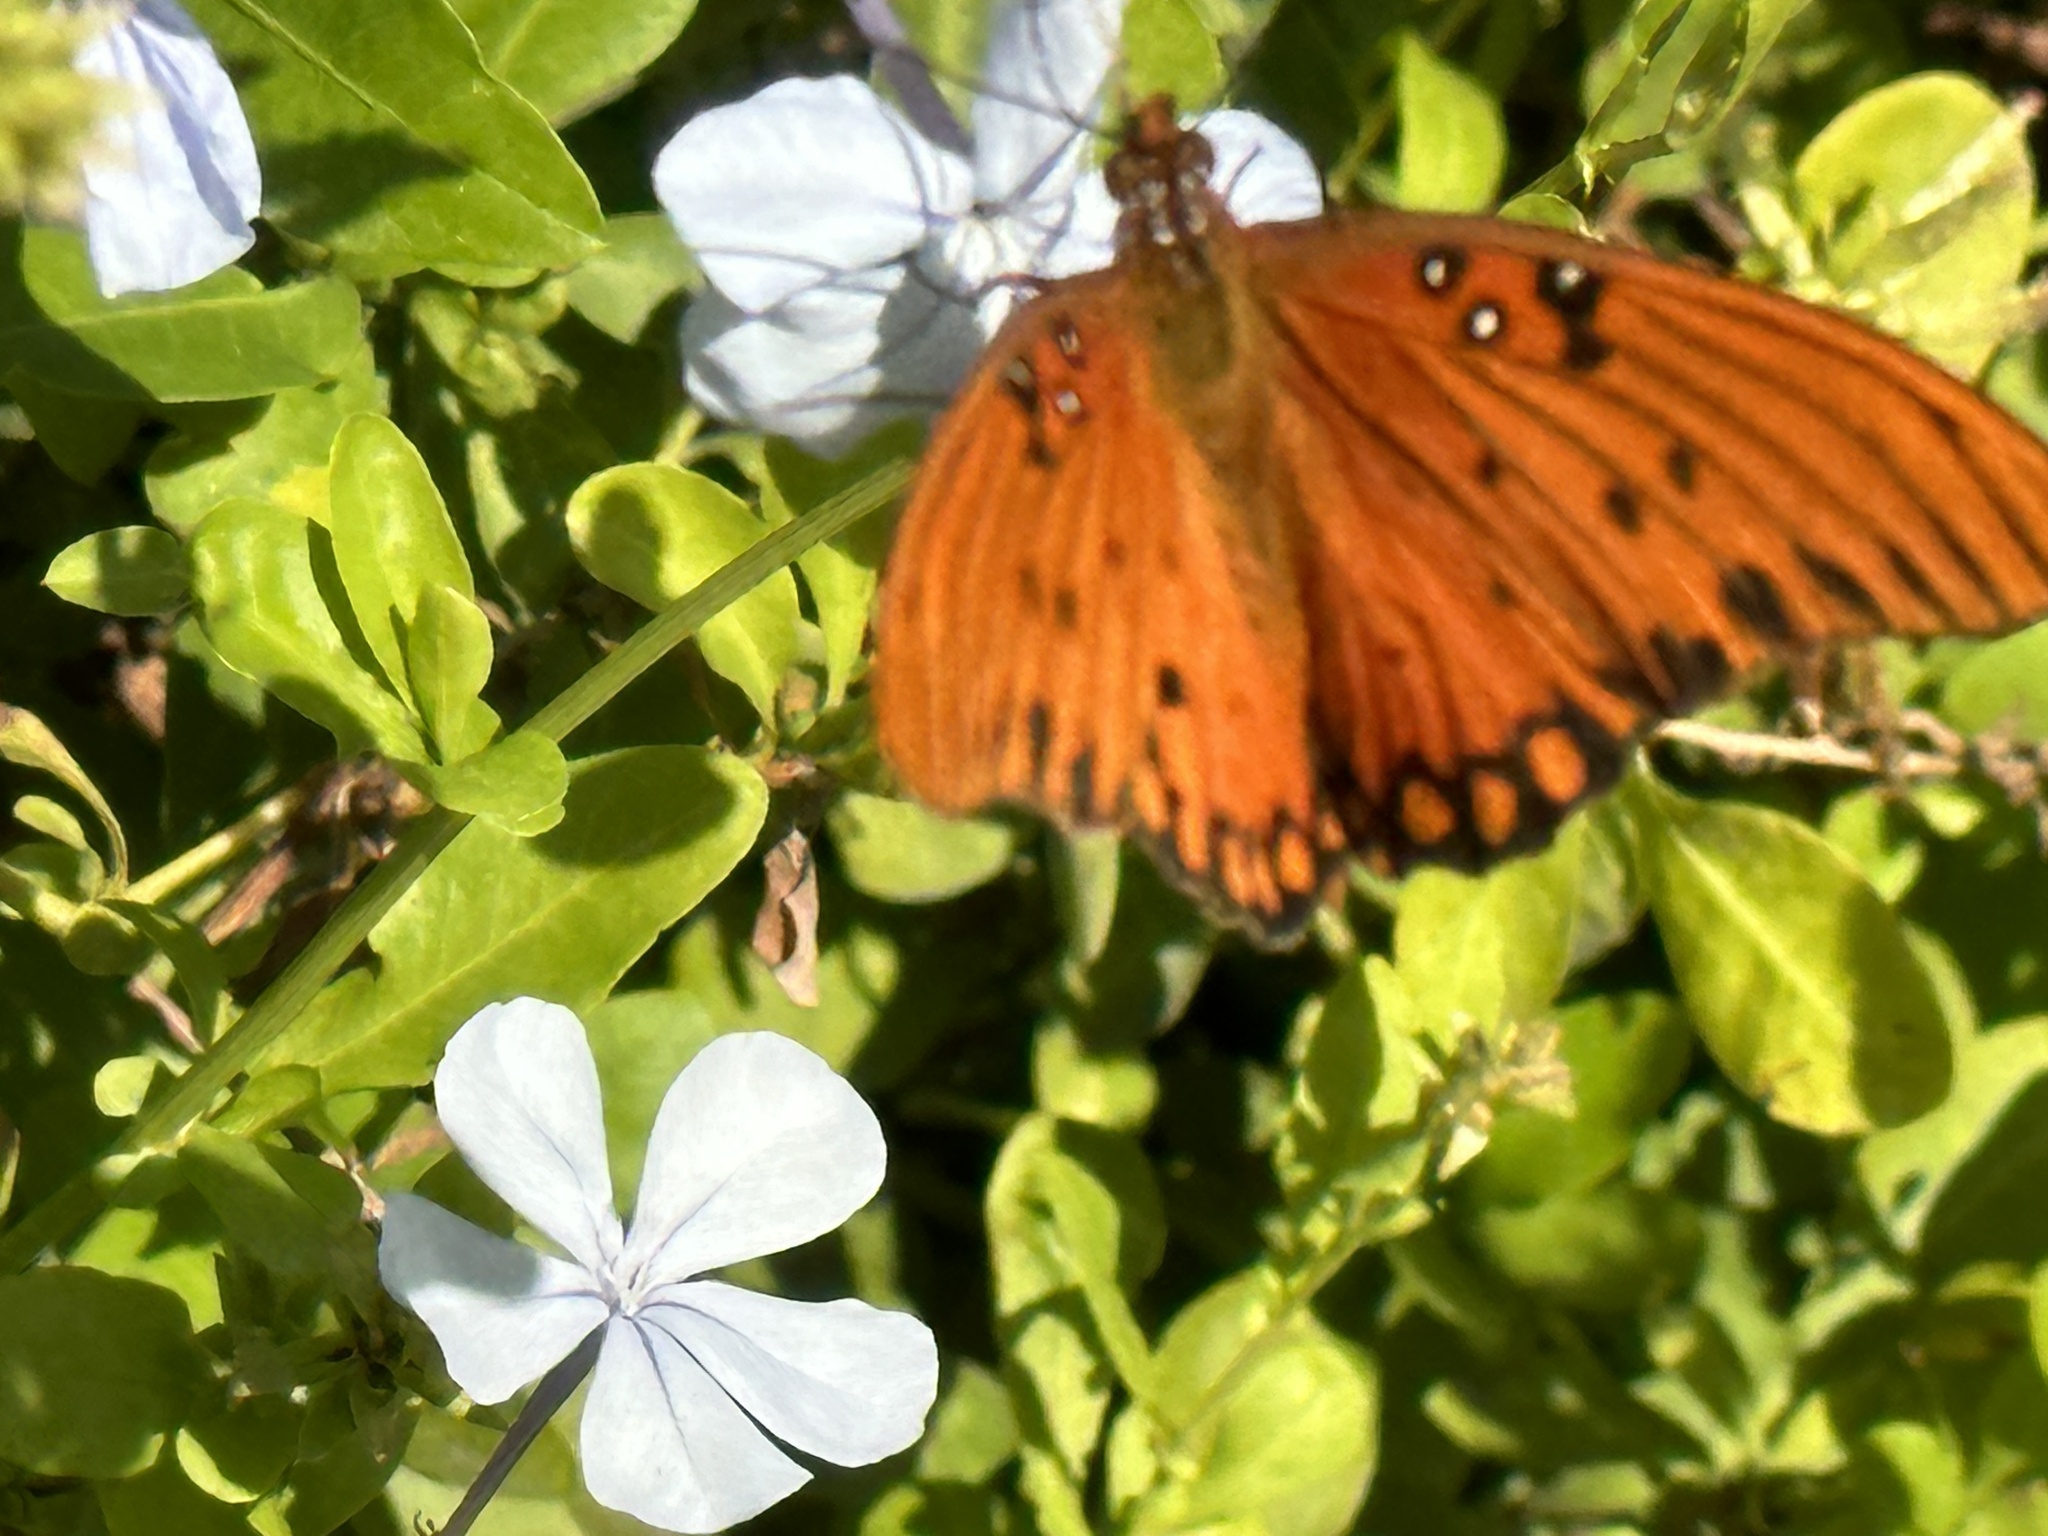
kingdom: Animalia
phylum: Arthropoda
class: Insecta
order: Lepidoptera
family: Nymphalidae
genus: Dione
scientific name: Dione vanillae
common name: Gulf fritillary
